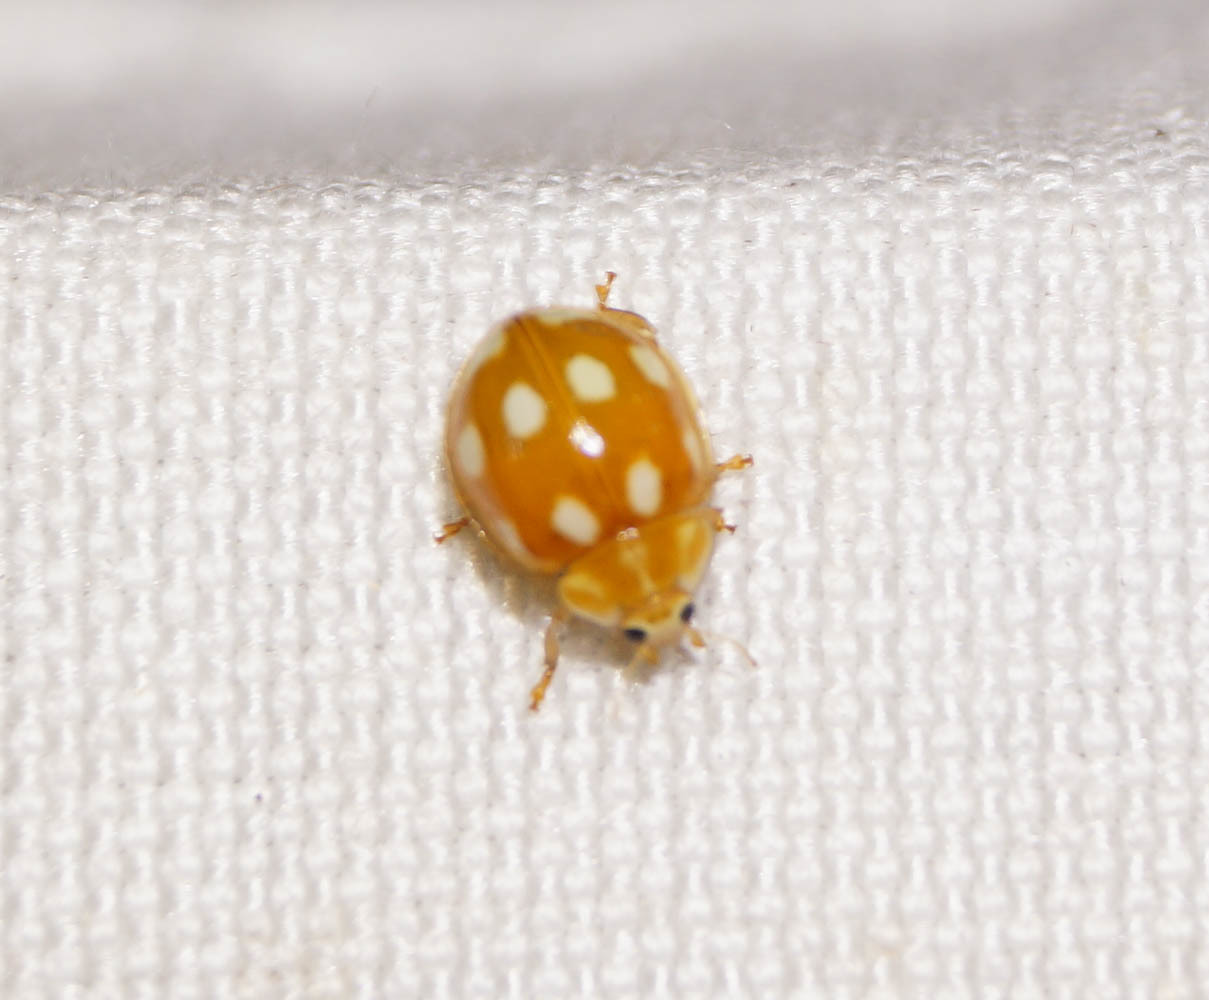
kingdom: Animalia
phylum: Arthropoda
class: Insecta
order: Coleoptera
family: Coccinellidae
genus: Calvia
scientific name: Calvia decemguttata
